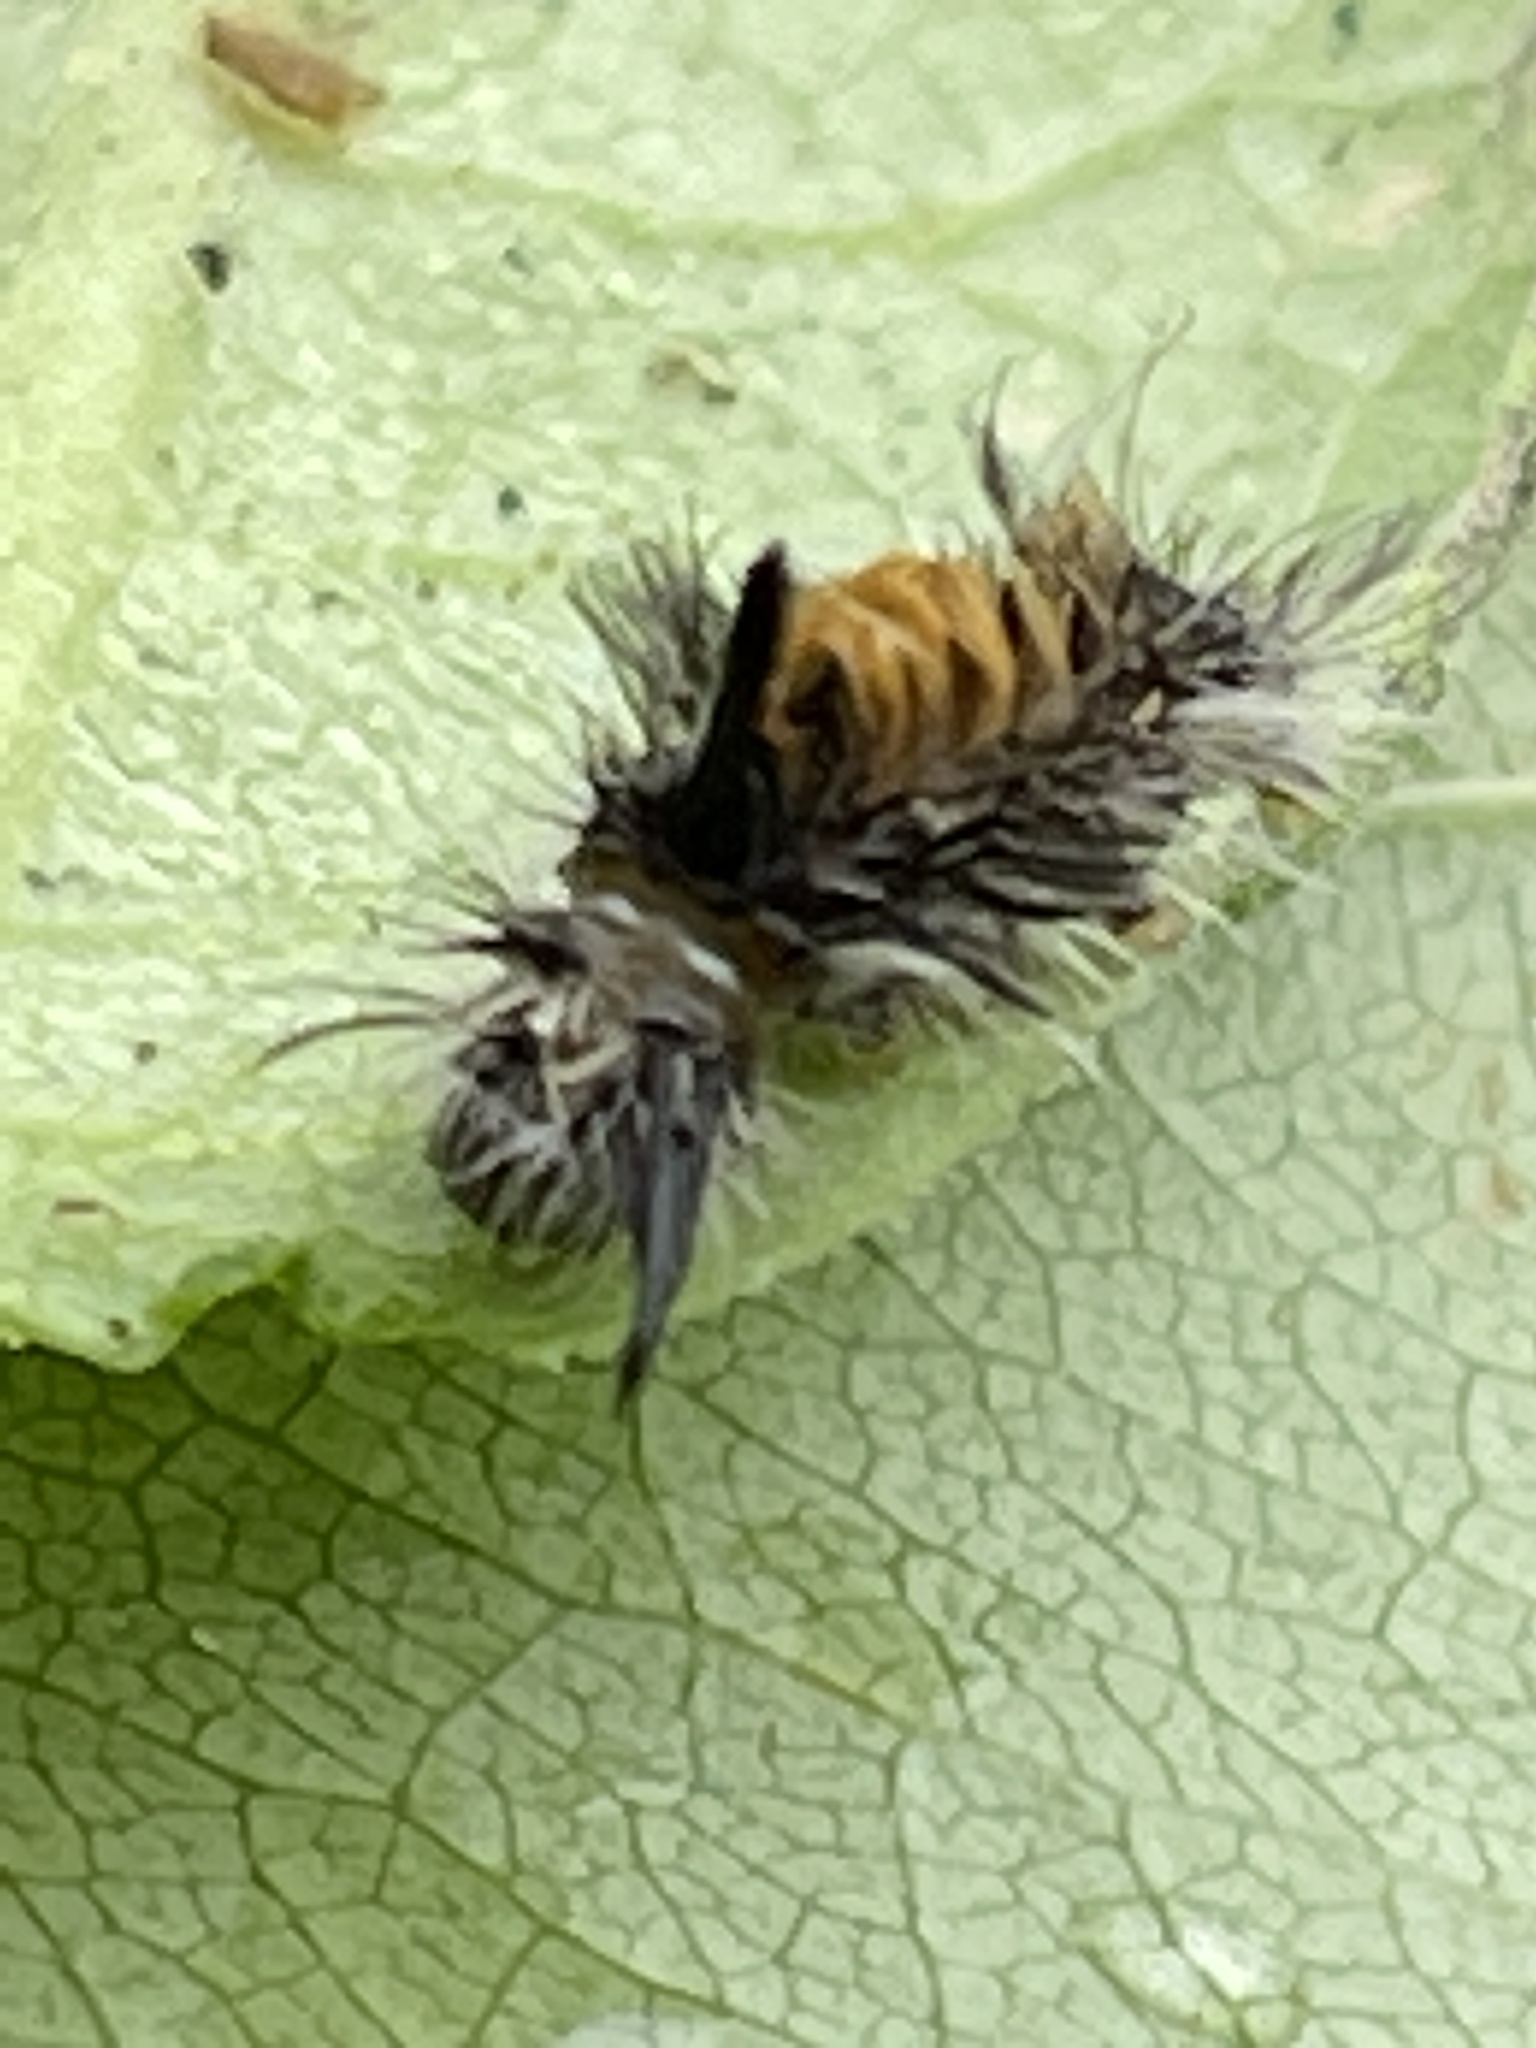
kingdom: Animalia
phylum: Arthropoda
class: Insecta
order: Lepidoptera
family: Erebidae
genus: Euchaetes
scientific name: Euchaetes egle
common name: Milkweed tussock moth
